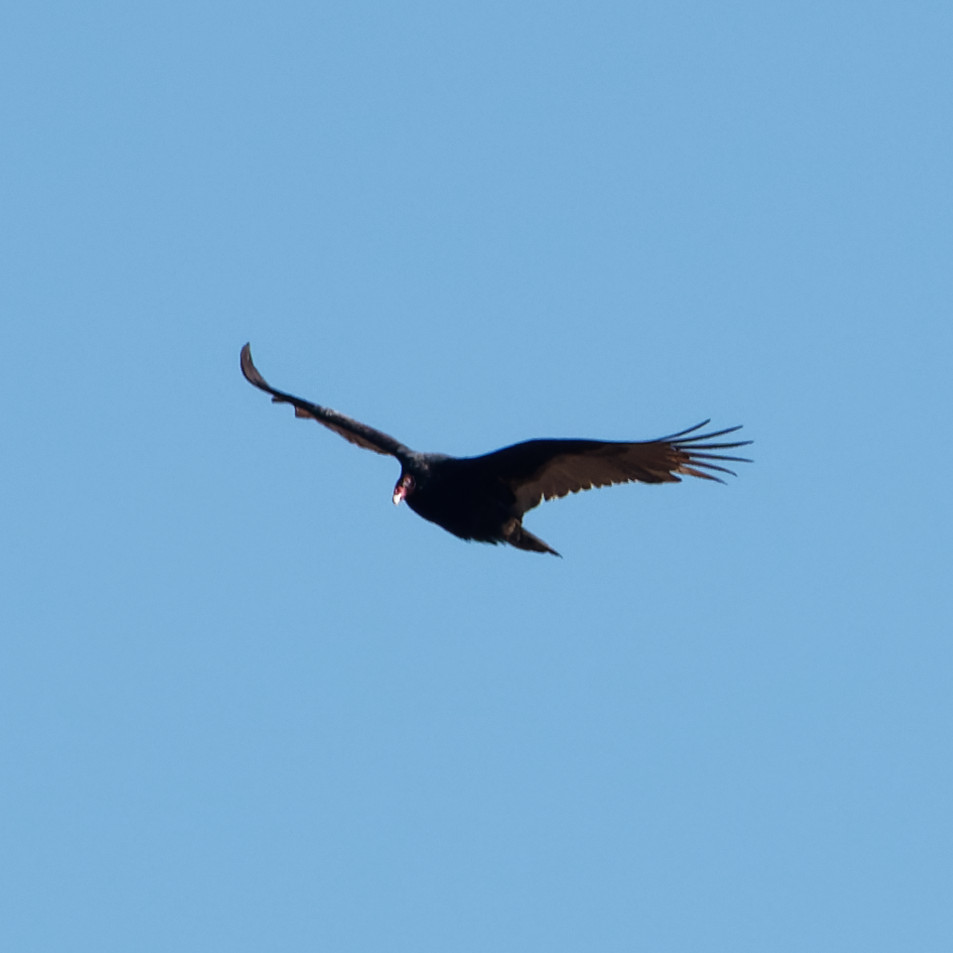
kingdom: Animalia
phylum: Chordata
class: Aves
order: Accipitriformes
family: Cathartidae
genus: Cathartes
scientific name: Cathartes aura
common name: Turkey vulture
